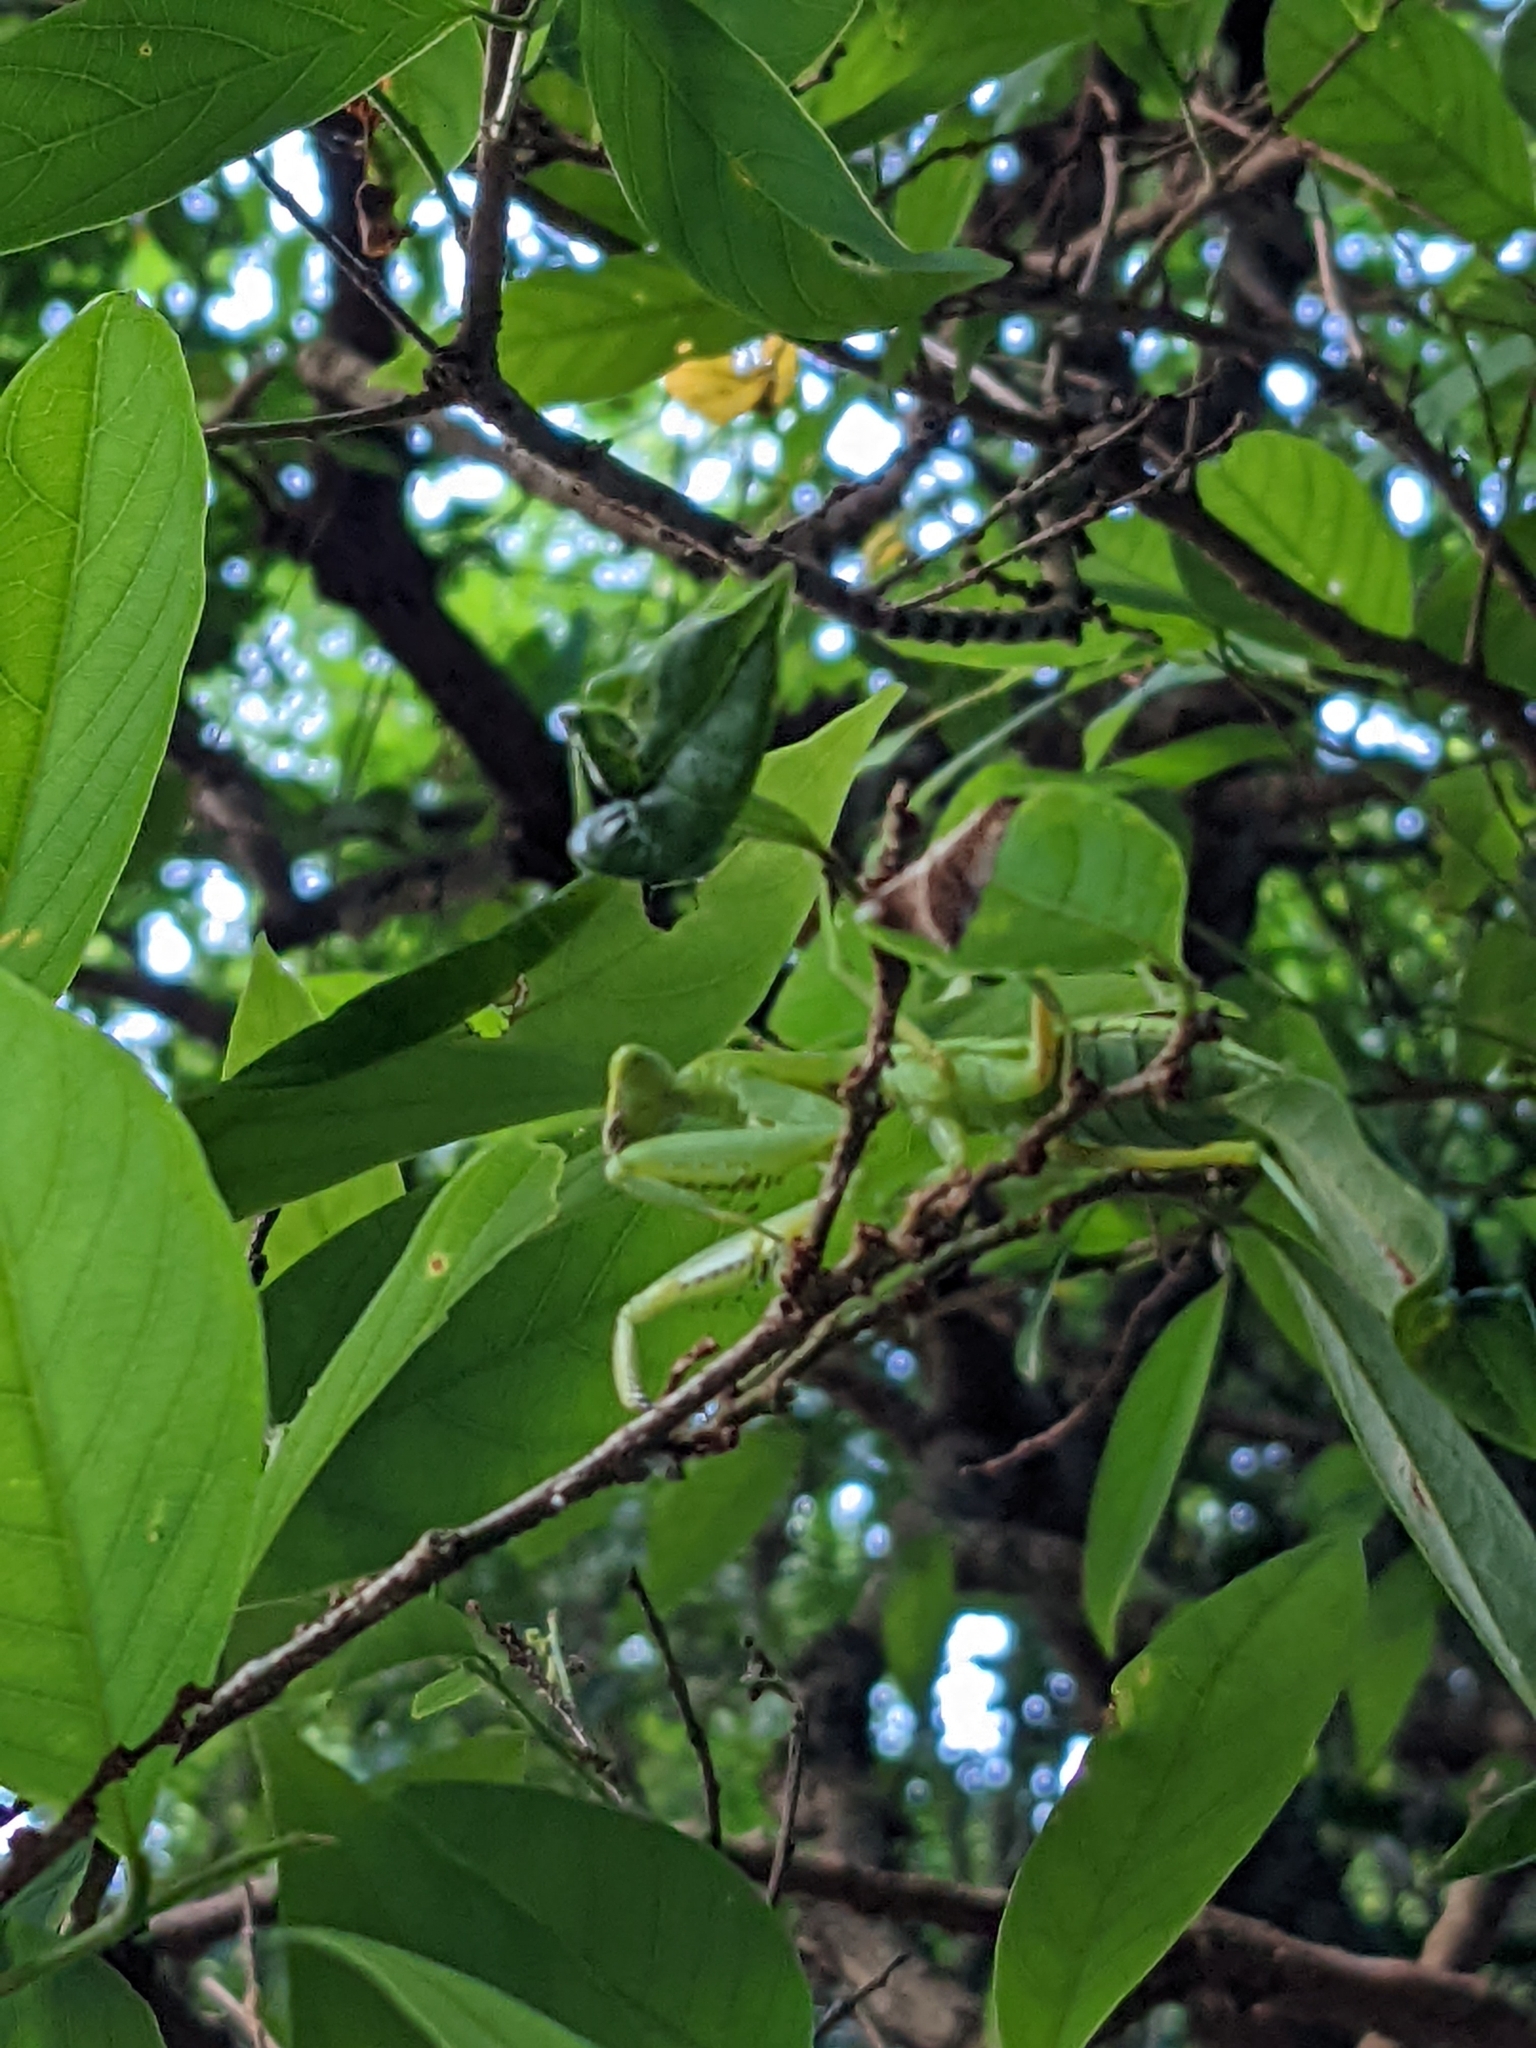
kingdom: Animalia
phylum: Arthropoda
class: Insecta
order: Mantodea
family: Mantidae
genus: Hierodula
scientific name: Hierodula patellifera
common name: Asian mantis
